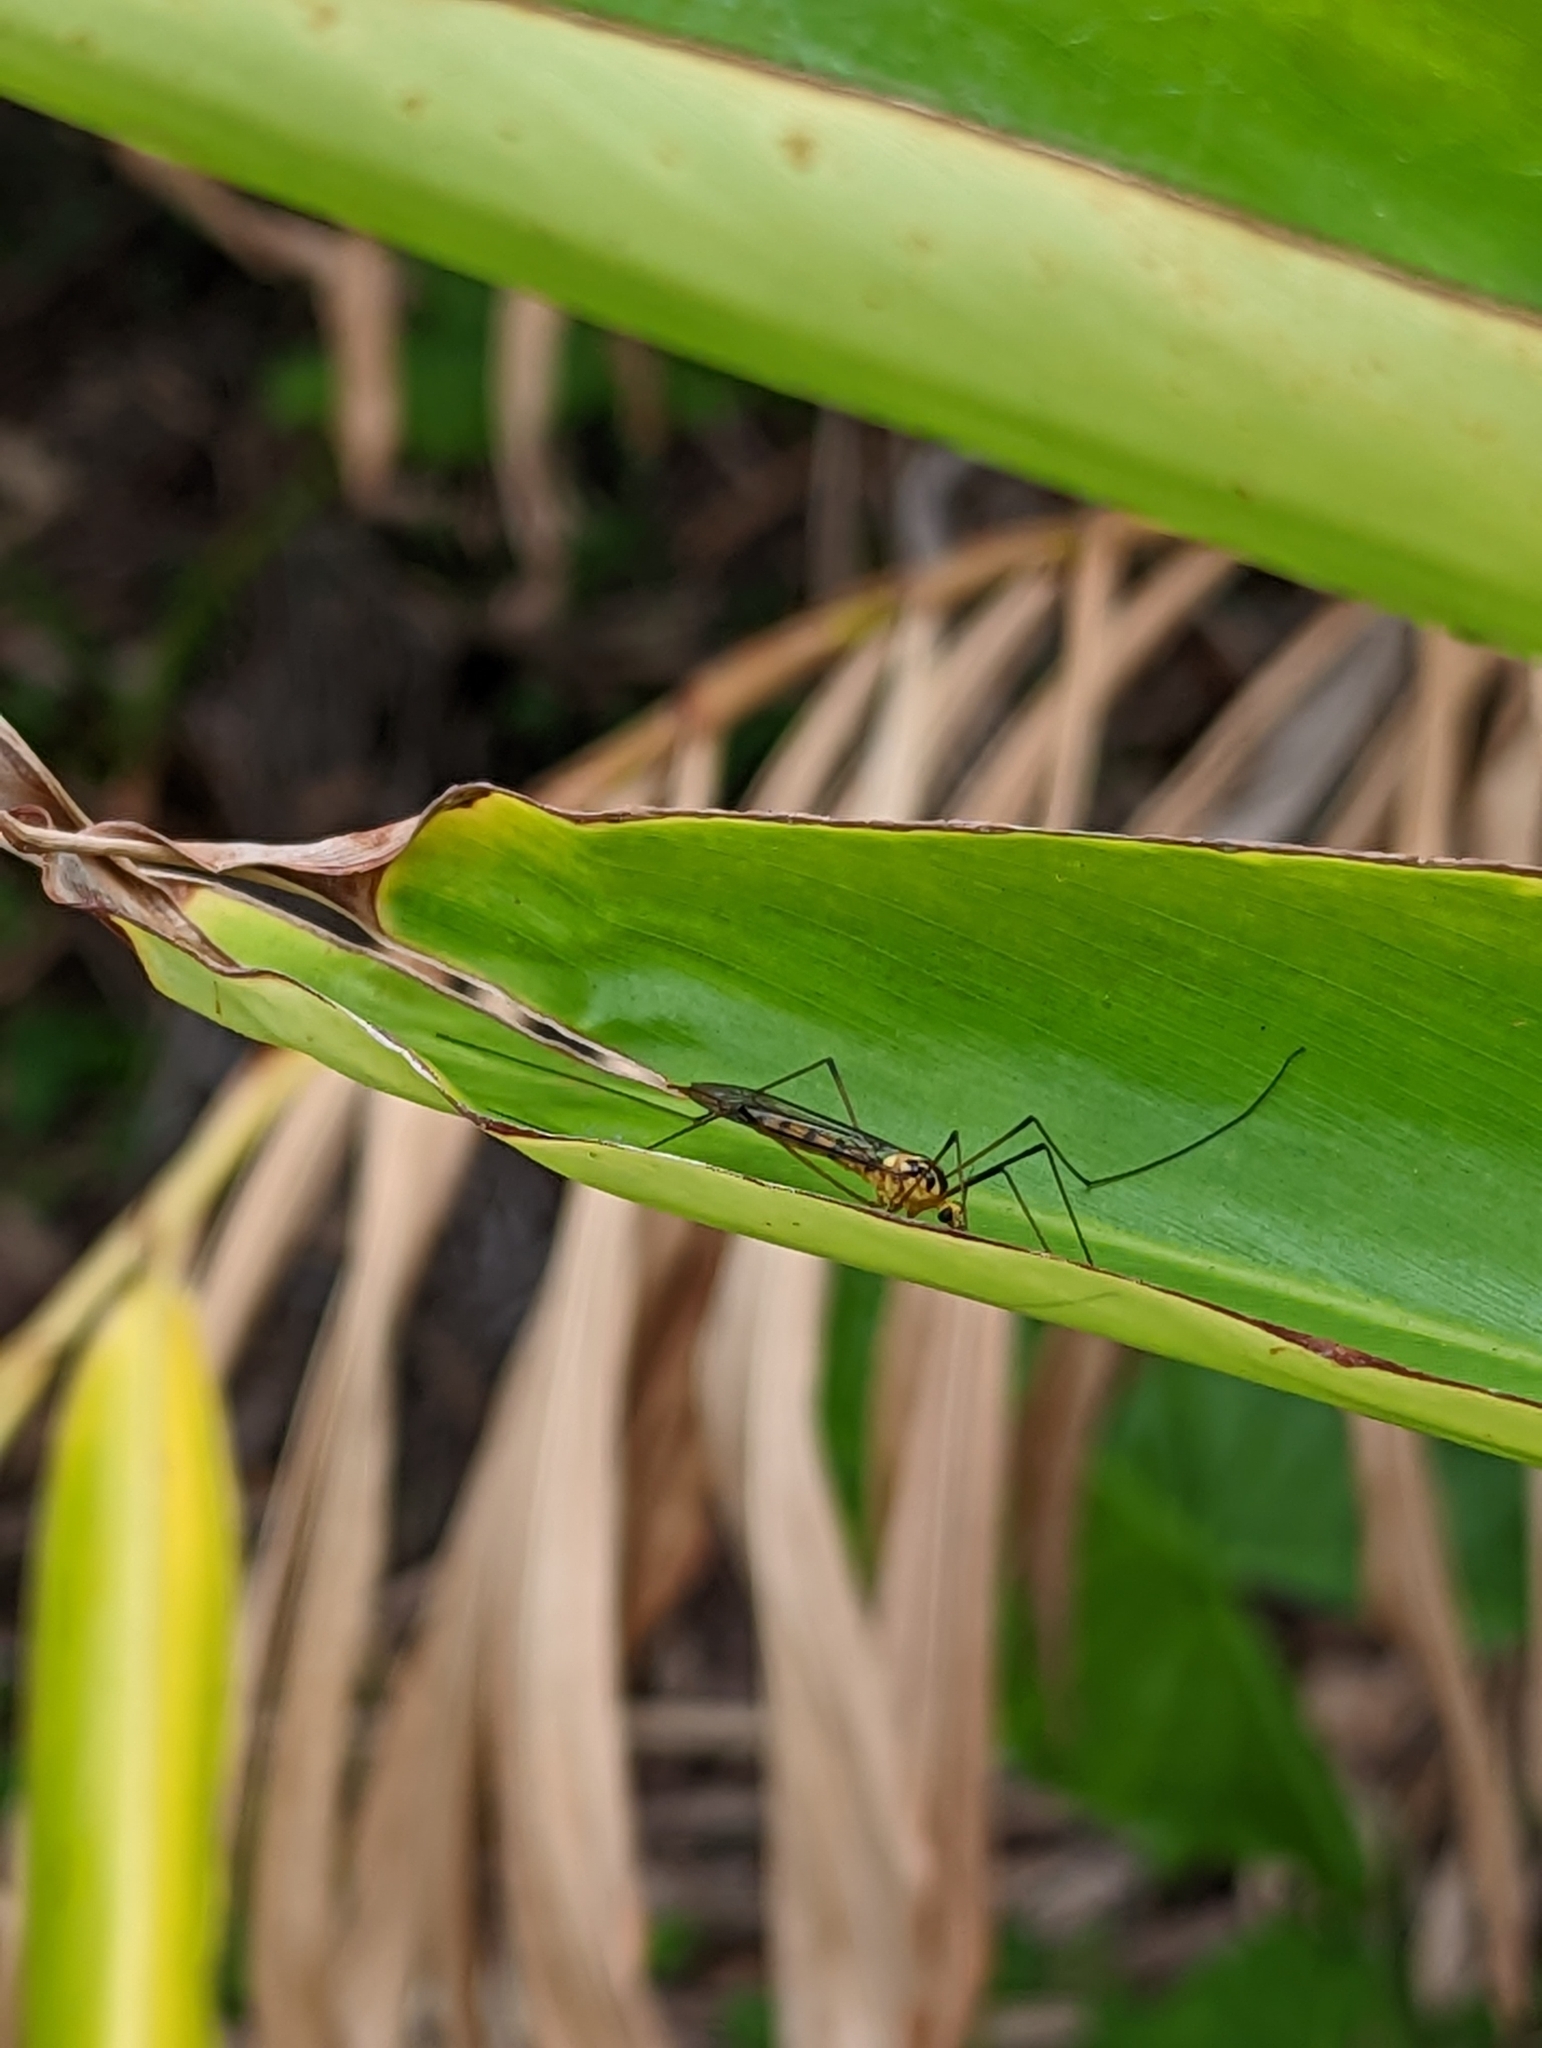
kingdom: Animalia
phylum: Arthropoda
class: Insecta
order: Diptera
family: Tipulidae
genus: Nephrotoma
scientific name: Nephrotoma australasiae
